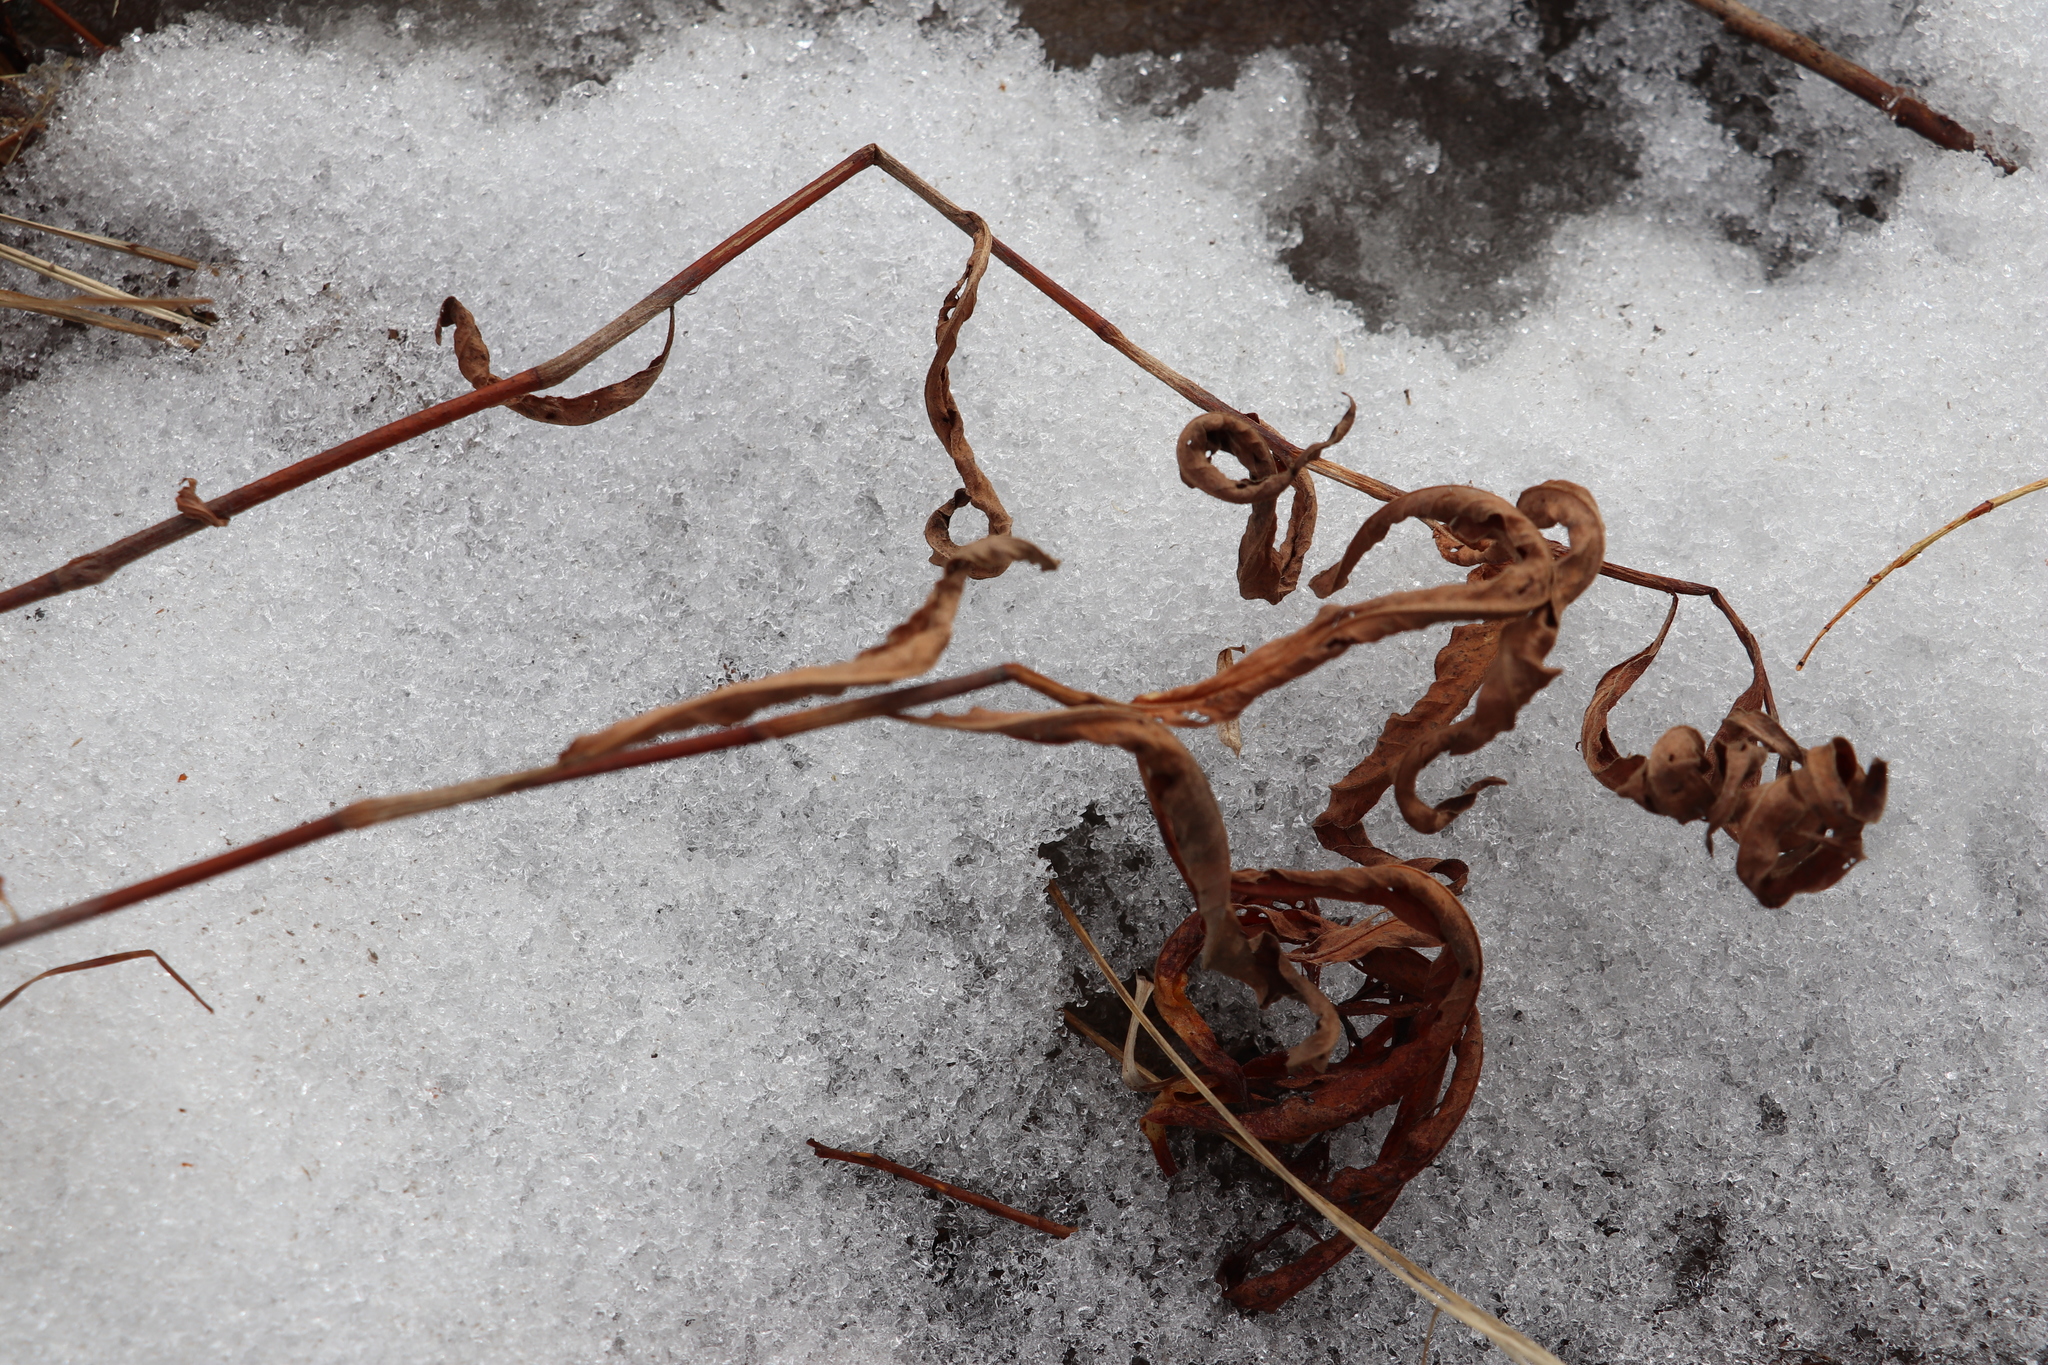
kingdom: Plantae
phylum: Tracheophyta
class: Magnoliopsida
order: Caryophyllales
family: Polygonaceae
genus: Persicaria
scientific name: Persicaria amphibia
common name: Amphibious bistort
